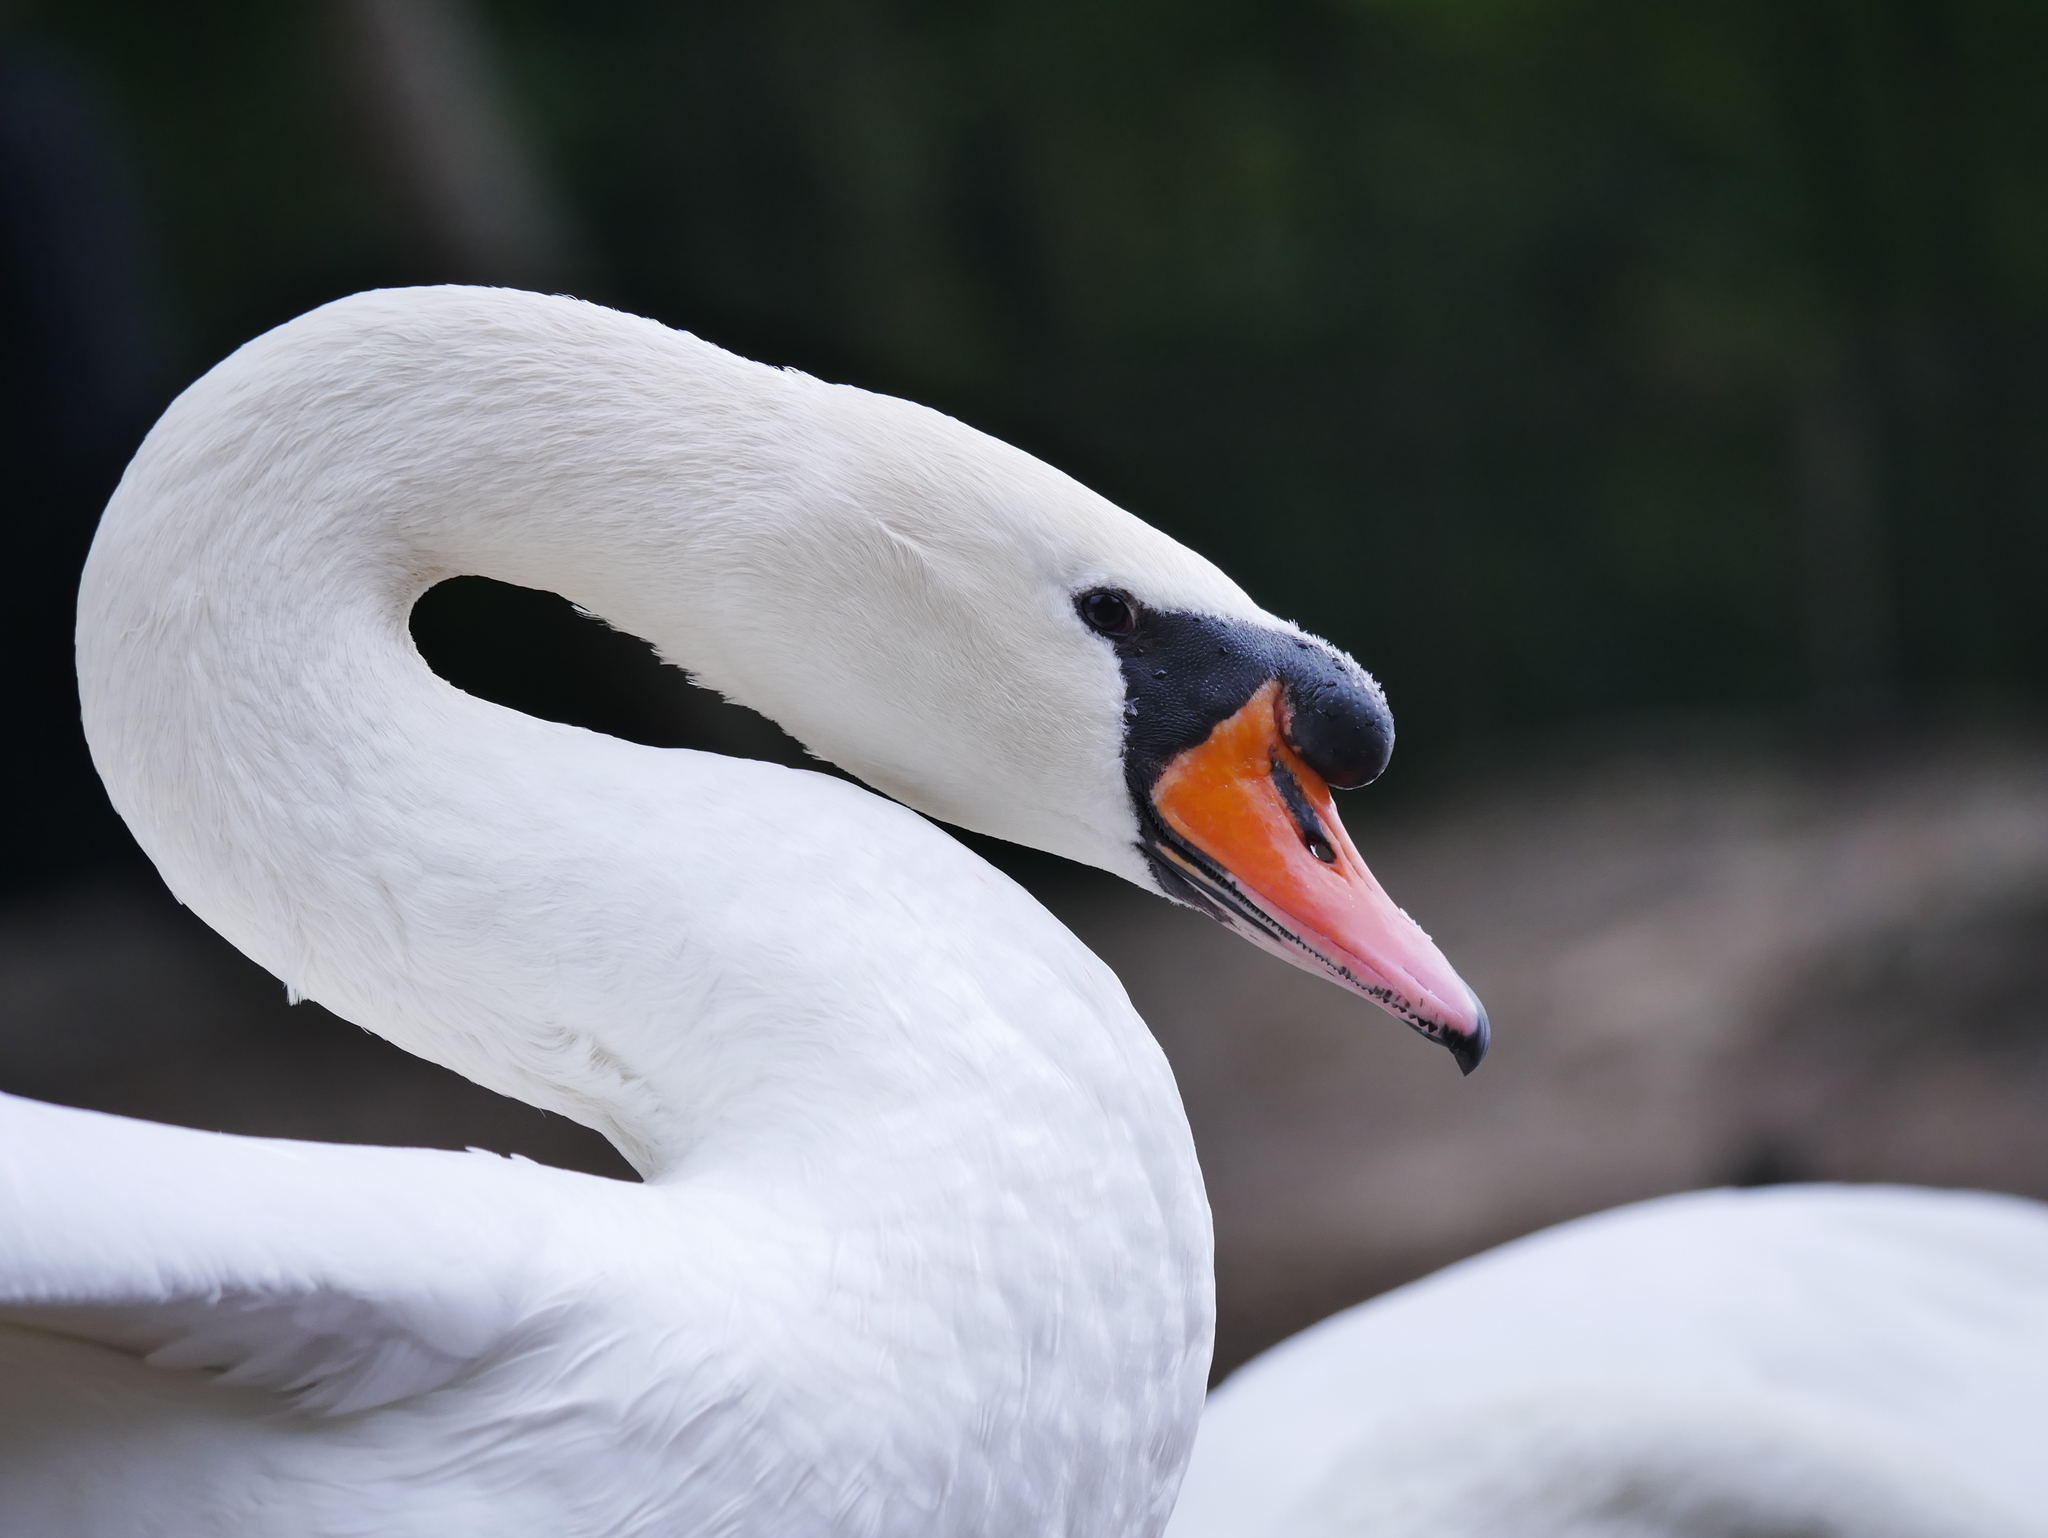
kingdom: Animalia
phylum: Chordata
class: Aves
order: Anseriformes
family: Anatidae
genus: Cygnus
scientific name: Cygnus olor
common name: Mute swan
